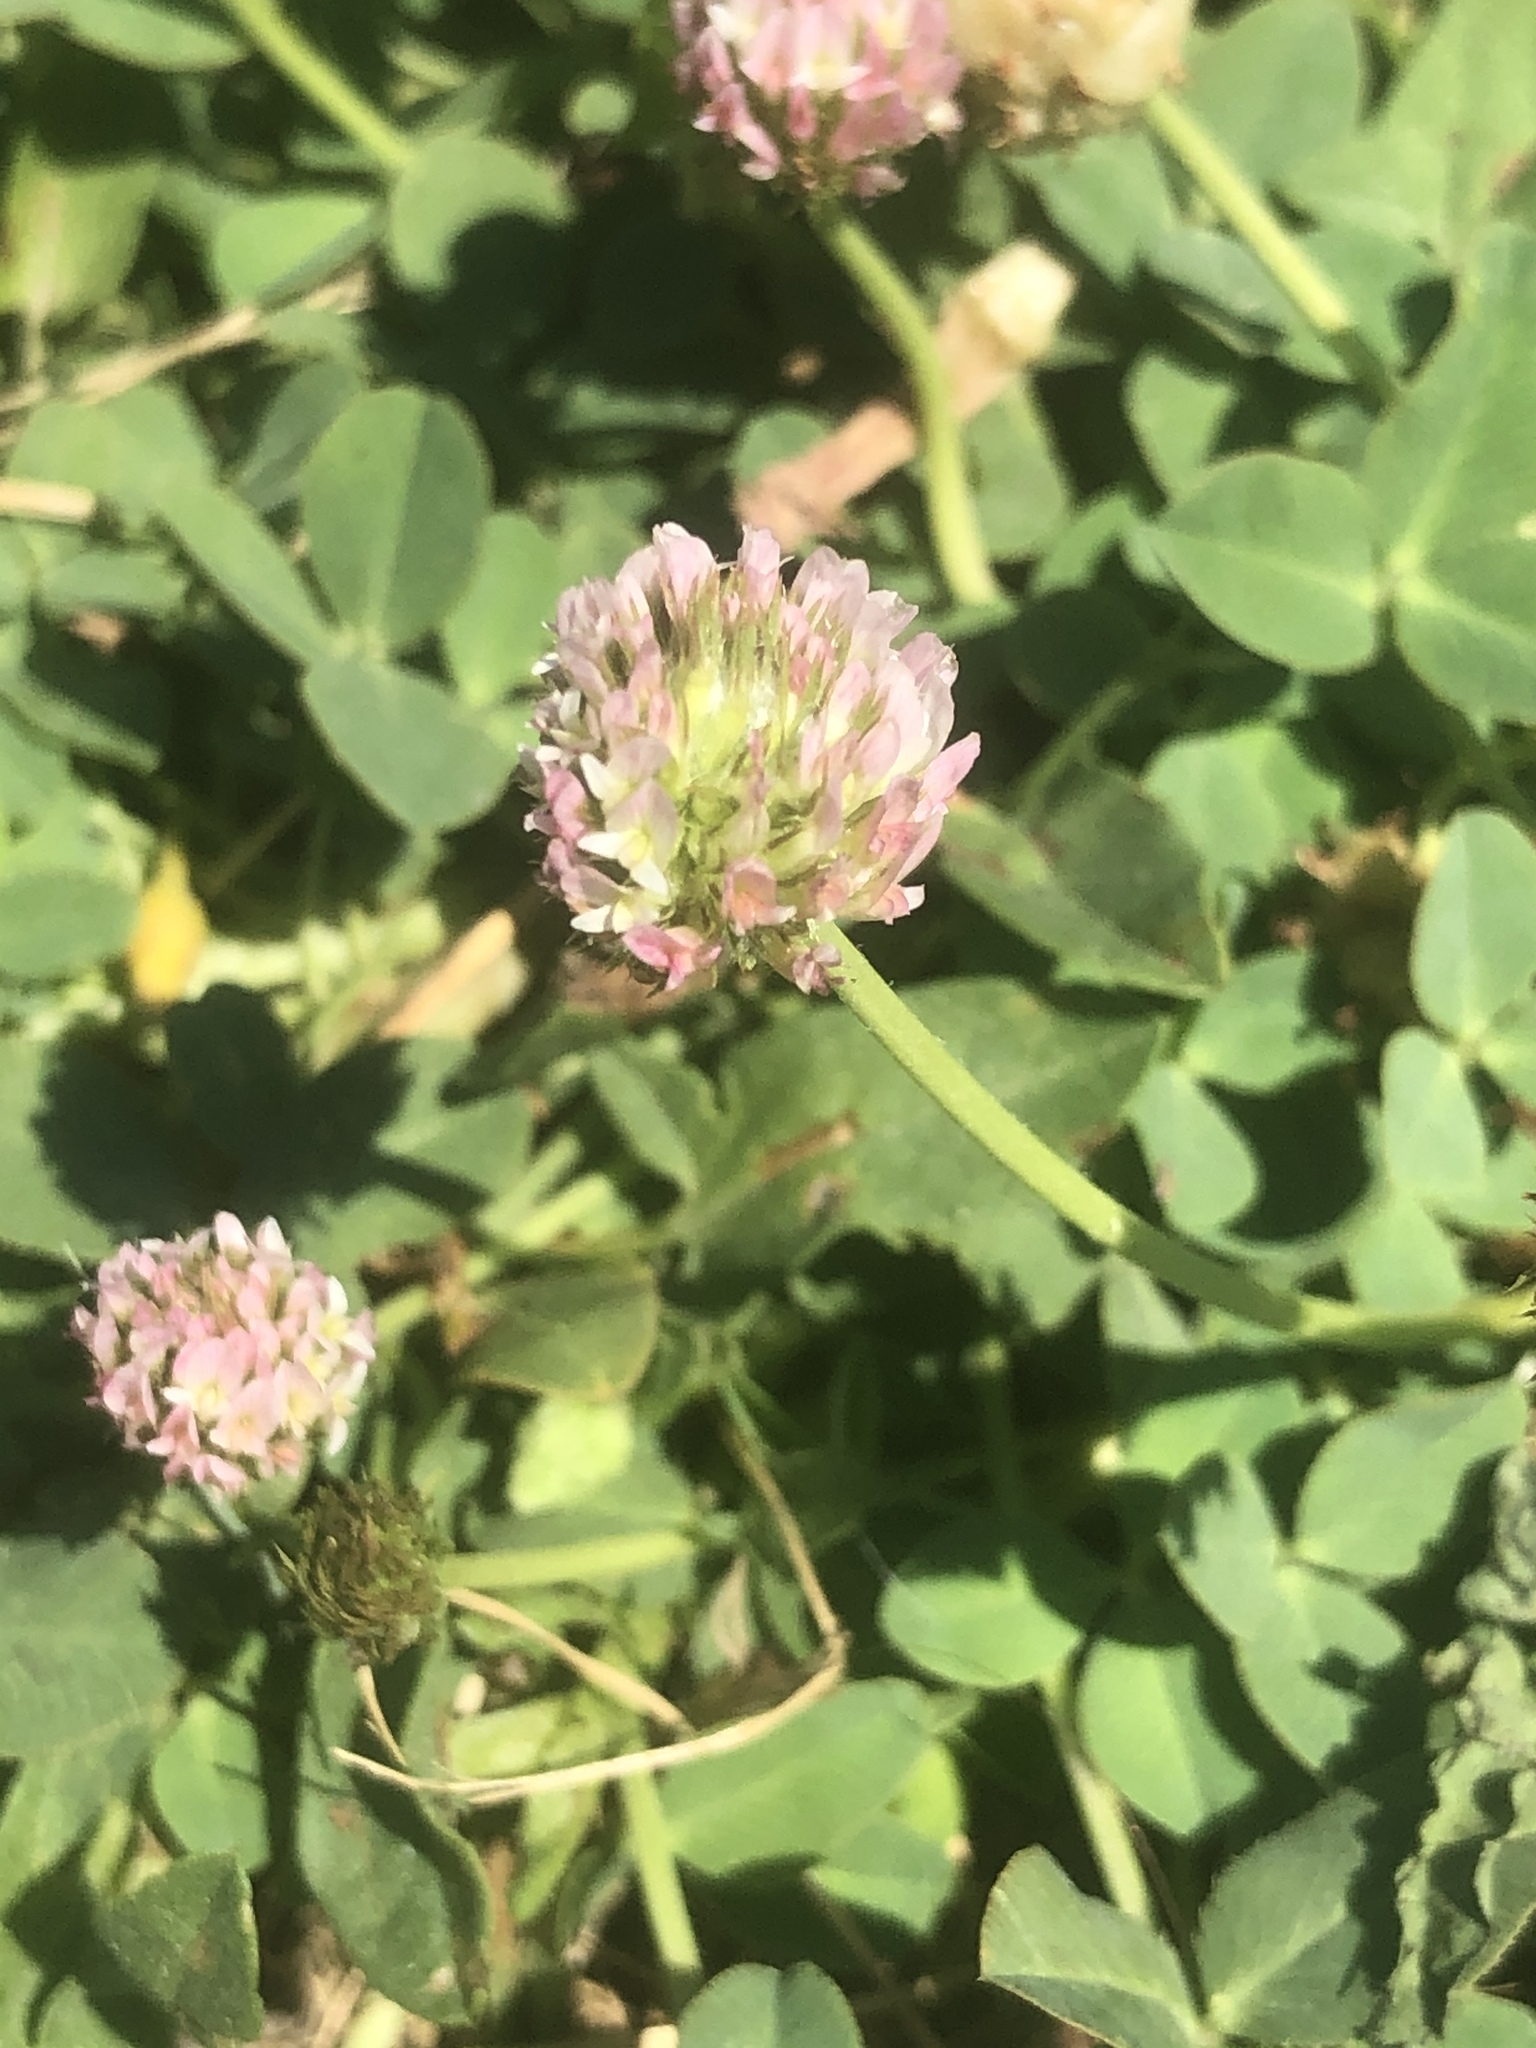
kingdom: Plantae
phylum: Tracheophyta
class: Magnoliopsida
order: Fabales
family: Fabaceae
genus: Trifolium
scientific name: Trifolium fragiferum
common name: Strawberry clover
